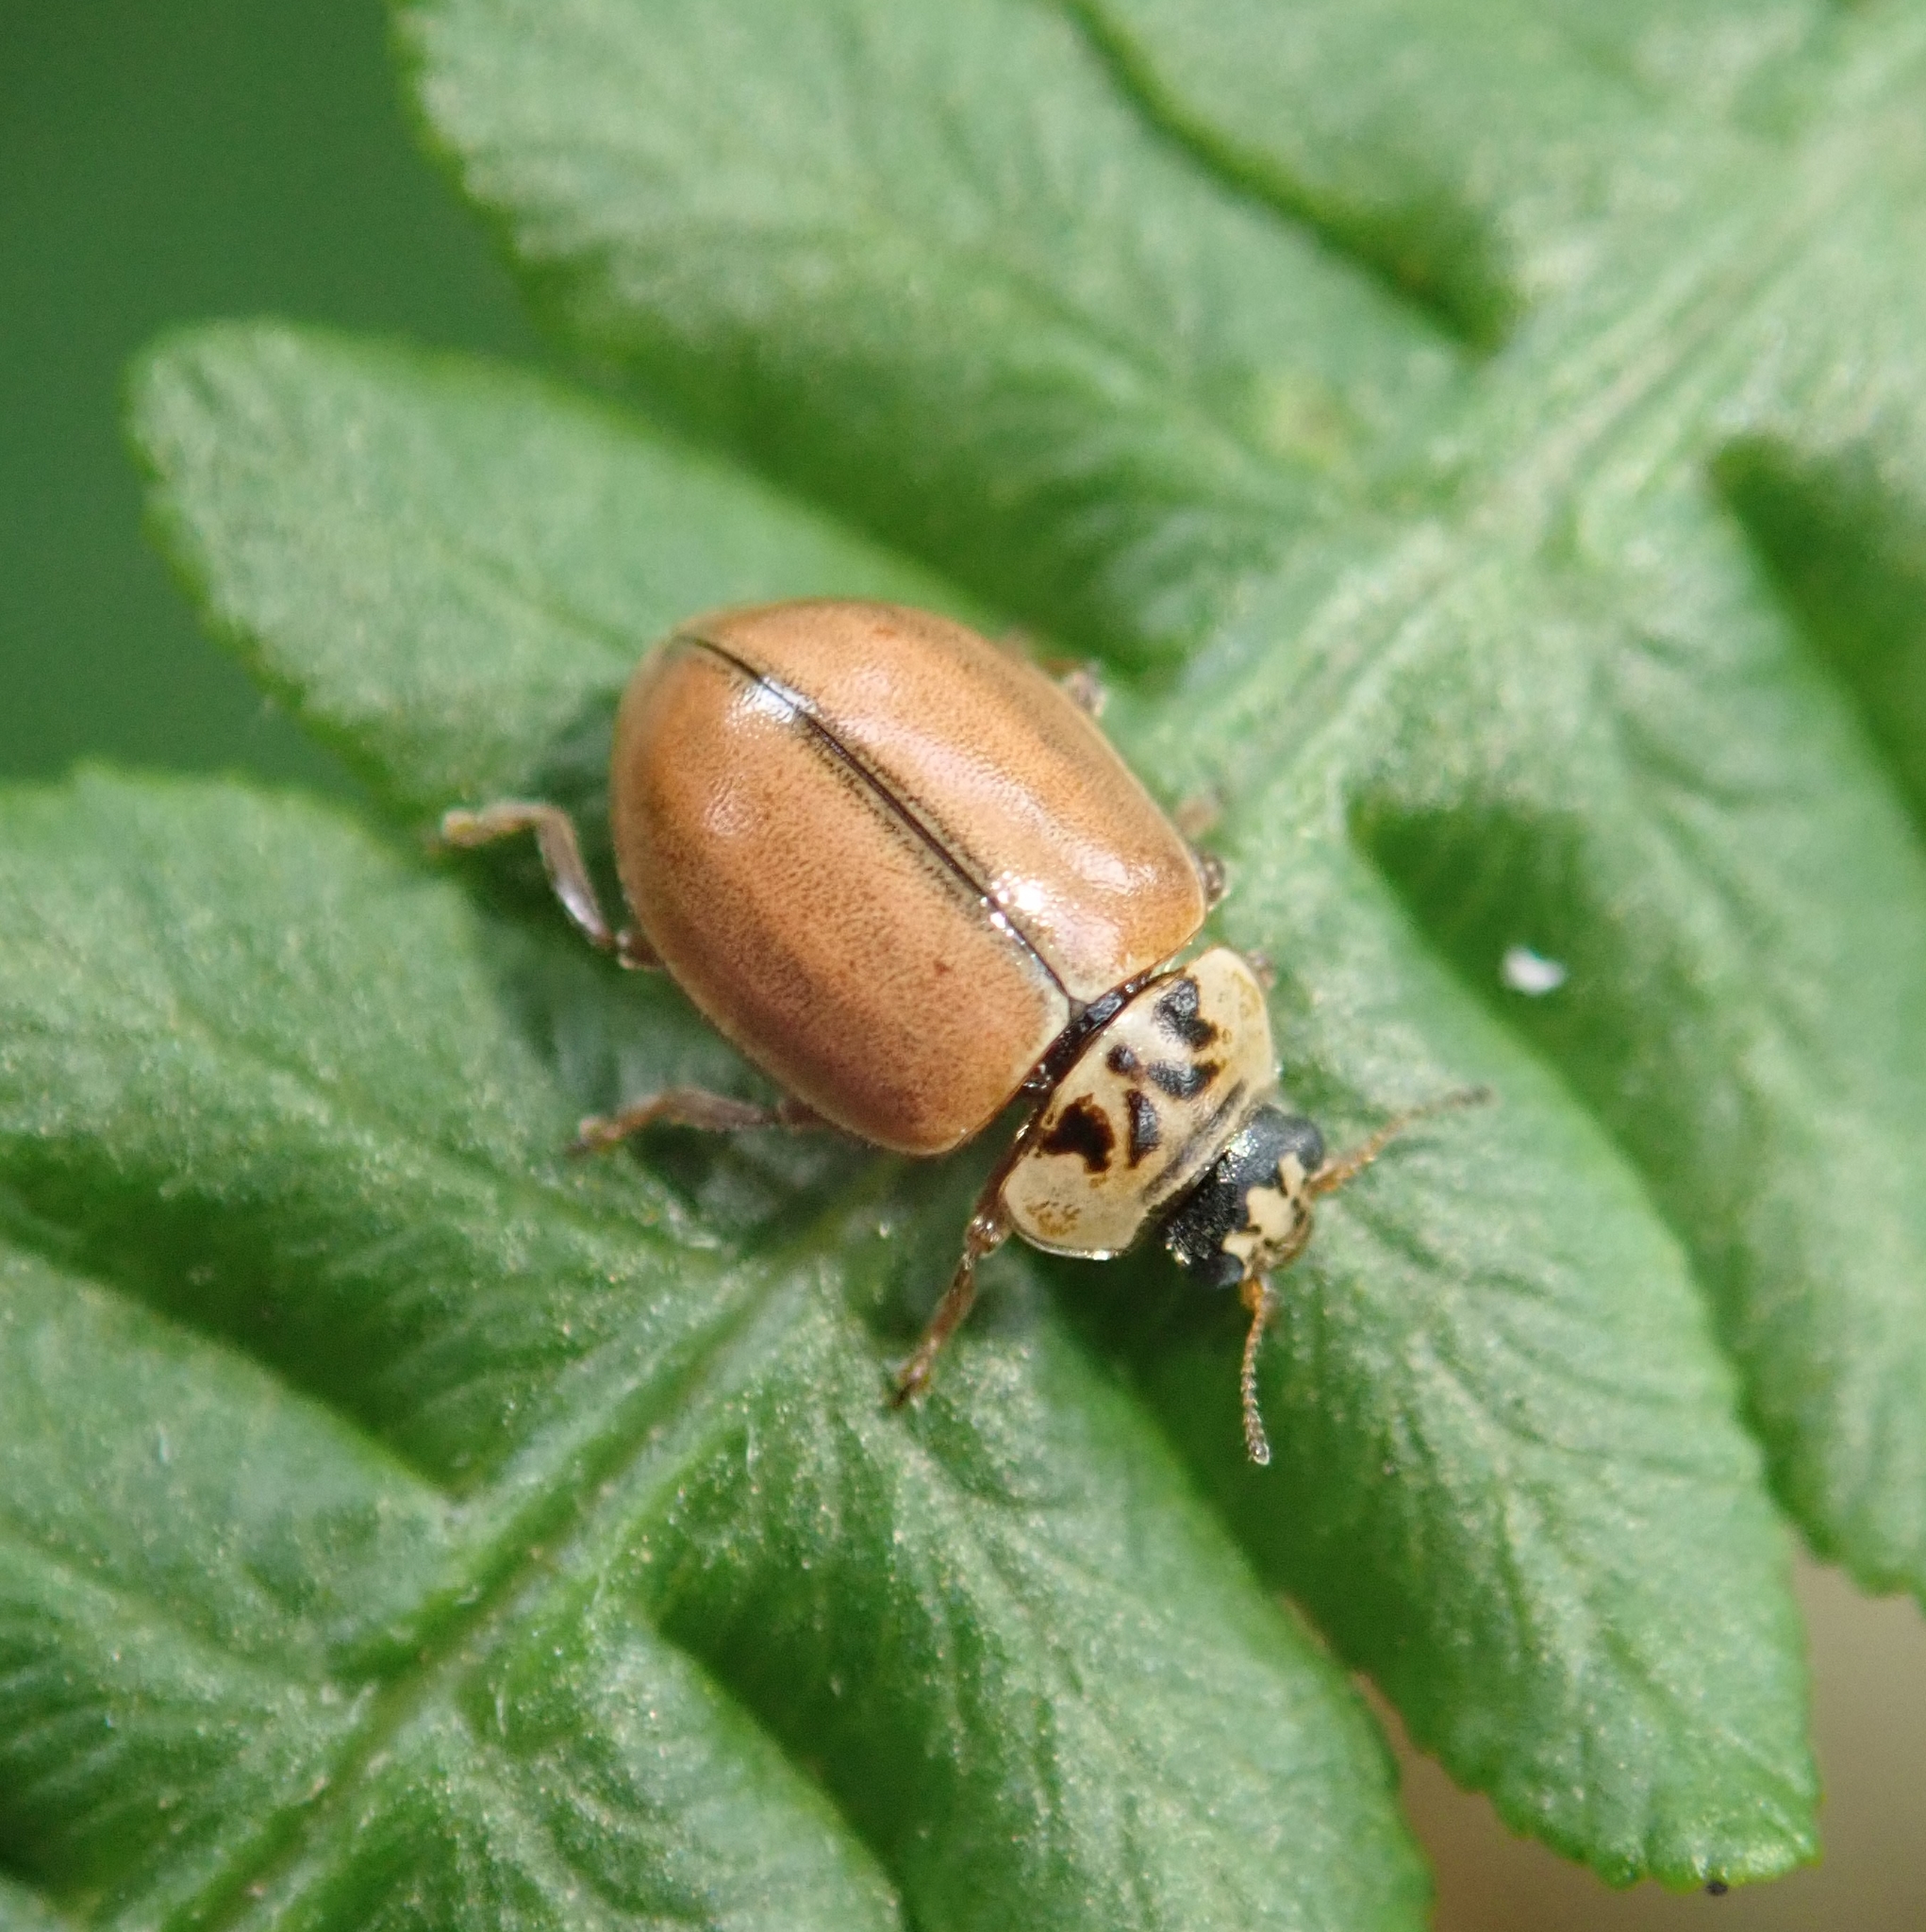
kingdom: Animalia
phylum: Arthropoda
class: Insecta
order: Coleoptera
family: Coccinellidae
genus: Aphidecta
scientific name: Aphidecta obliterata
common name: Larch ladybird
